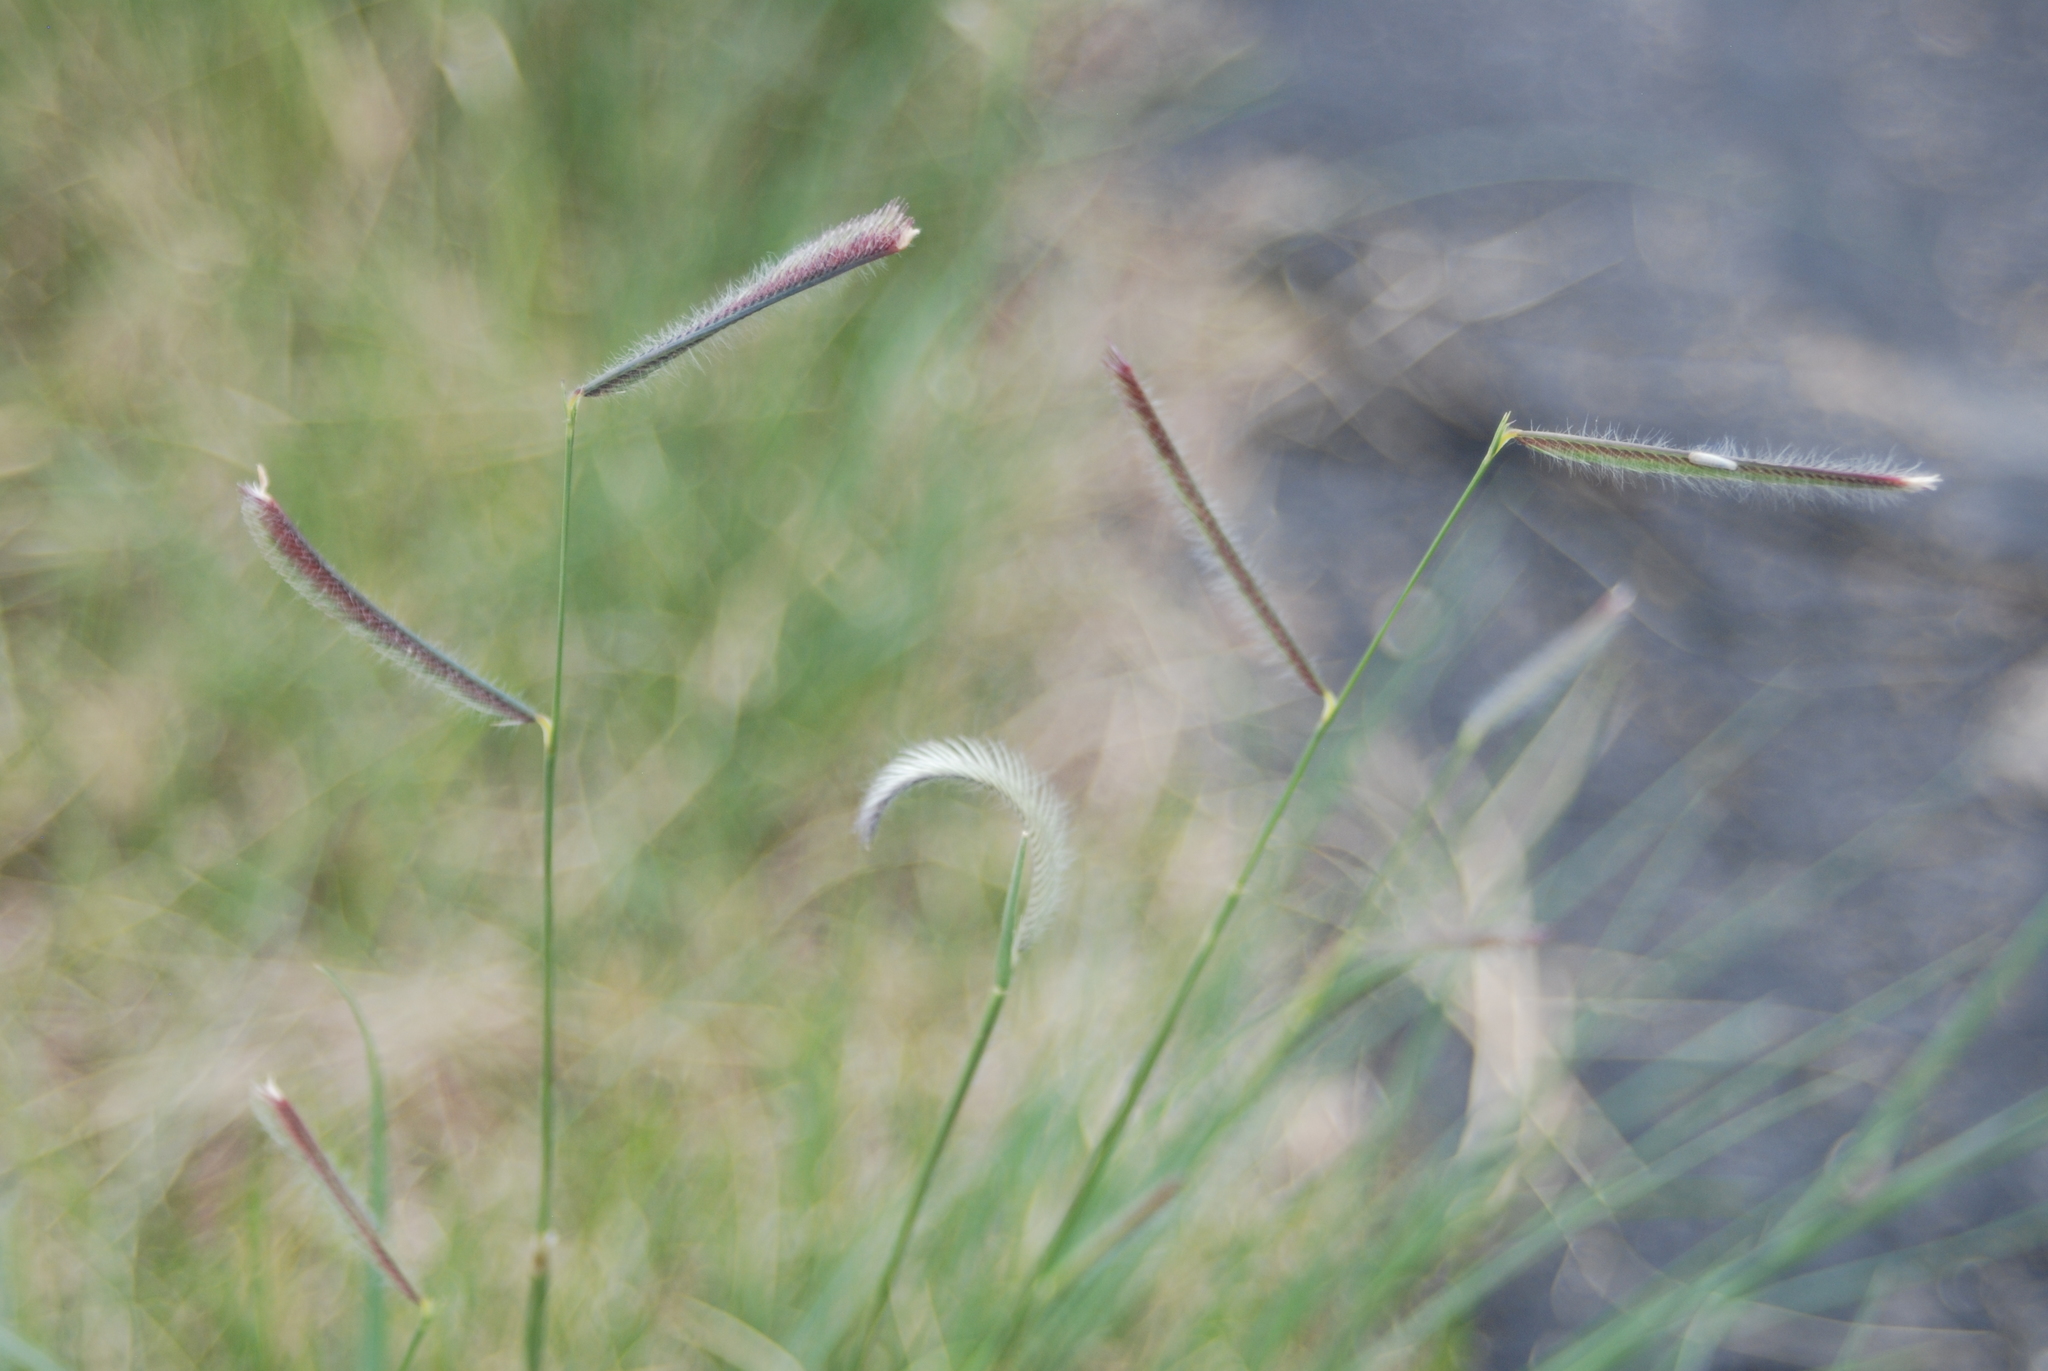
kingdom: Plantae
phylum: Tracheophyta
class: Liliopsida
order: Poales
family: Poaceae
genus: Bouteloua
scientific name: Bouteloua gracilis
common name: Blue grama
